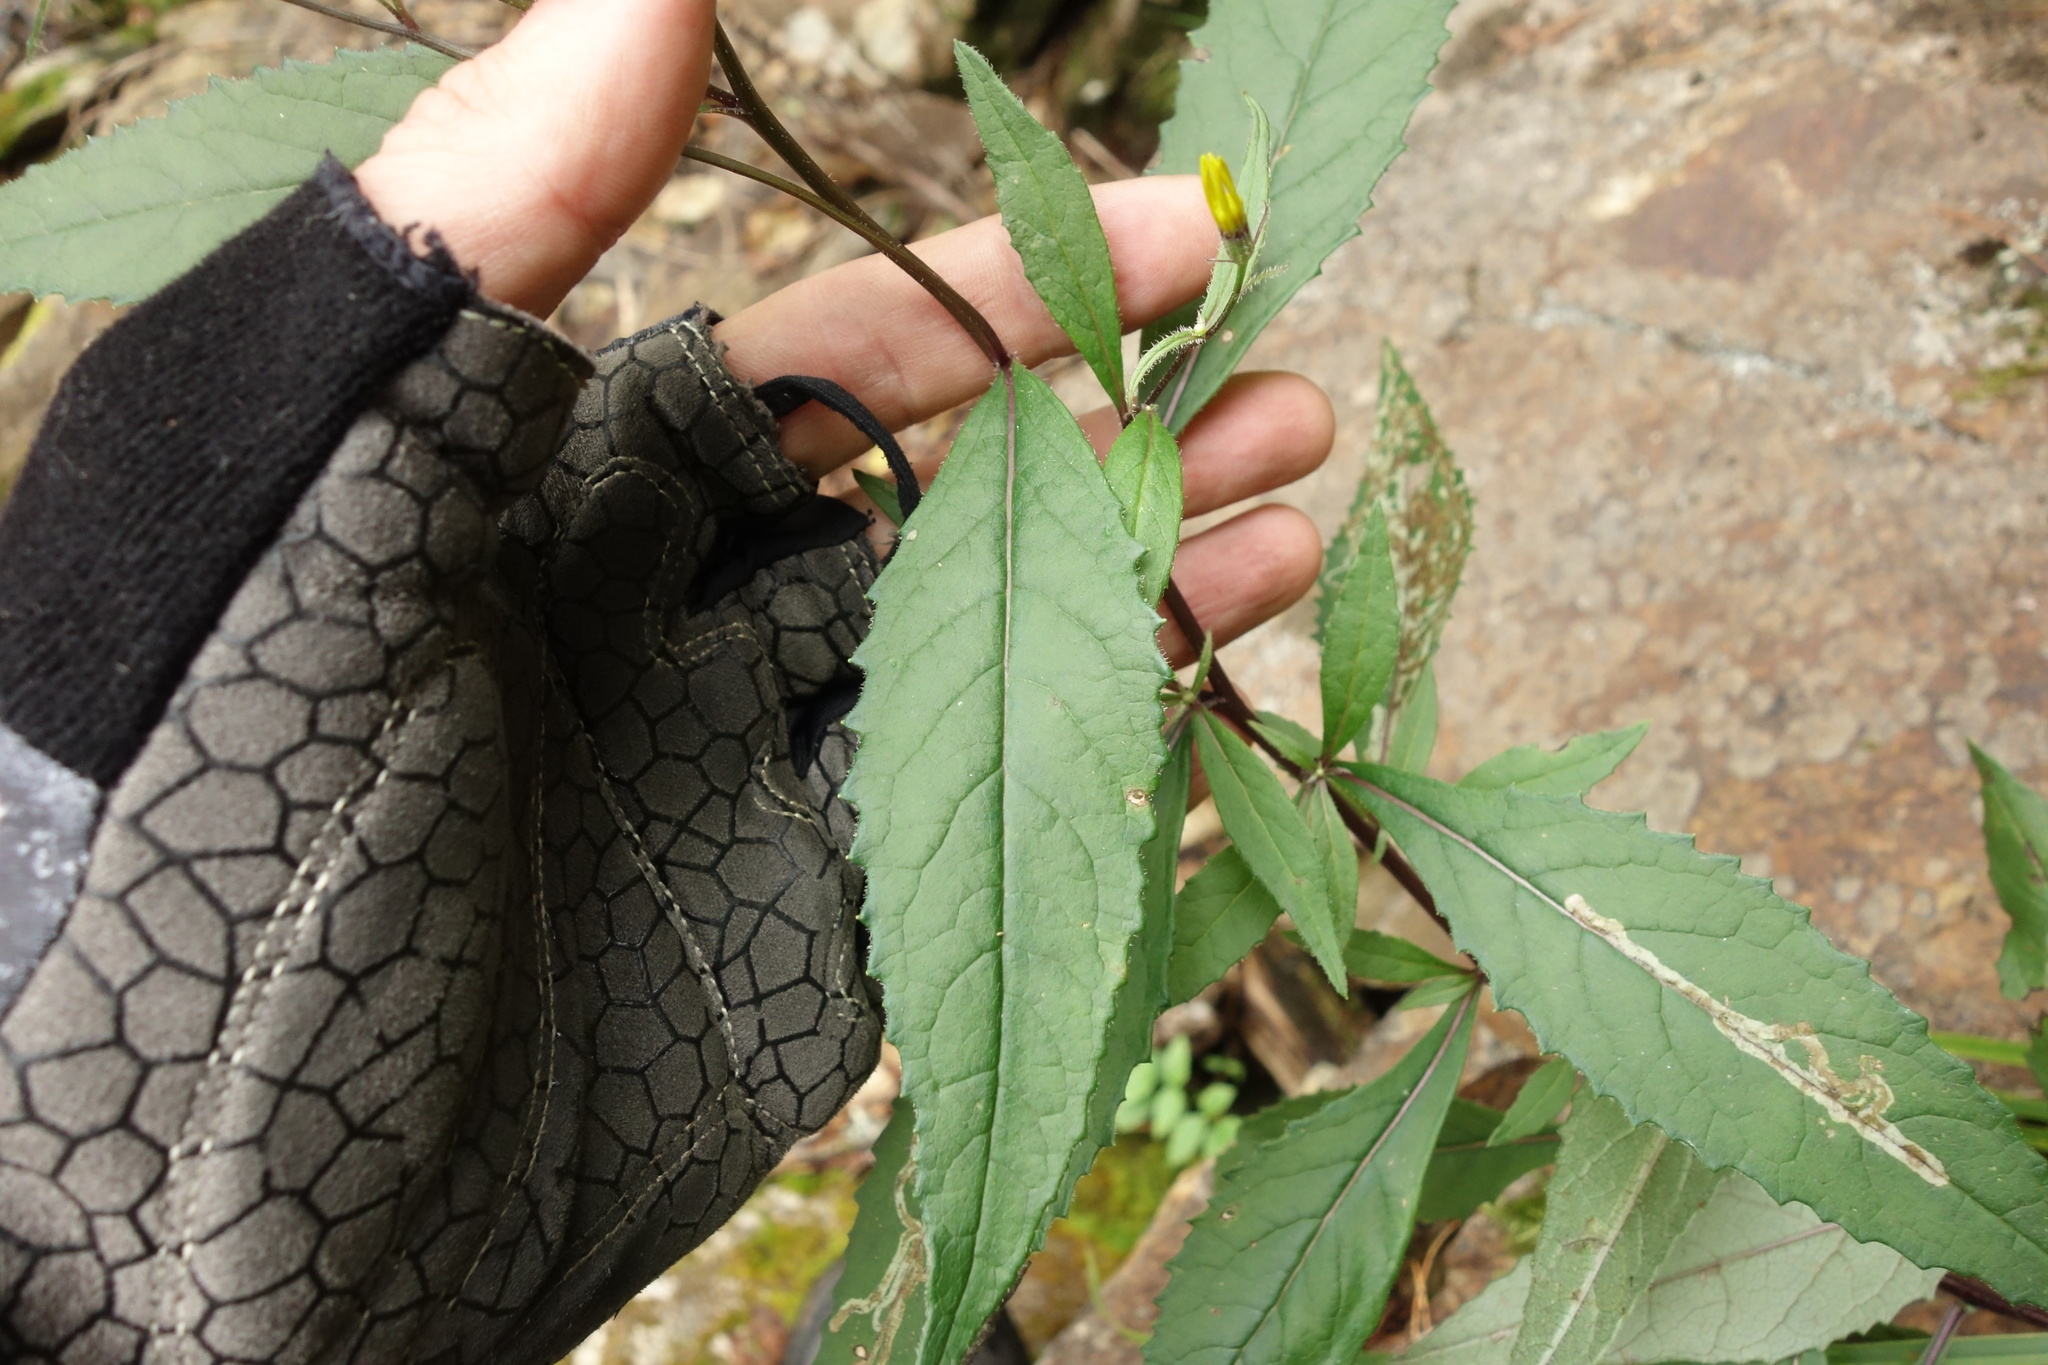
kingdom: Plantae
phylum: Tracheophyta
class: Magnoliopsida
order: Asterales
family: Asteraceae
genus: Senecio
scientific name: Senecio nemorensis
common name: Alpine ragwort
